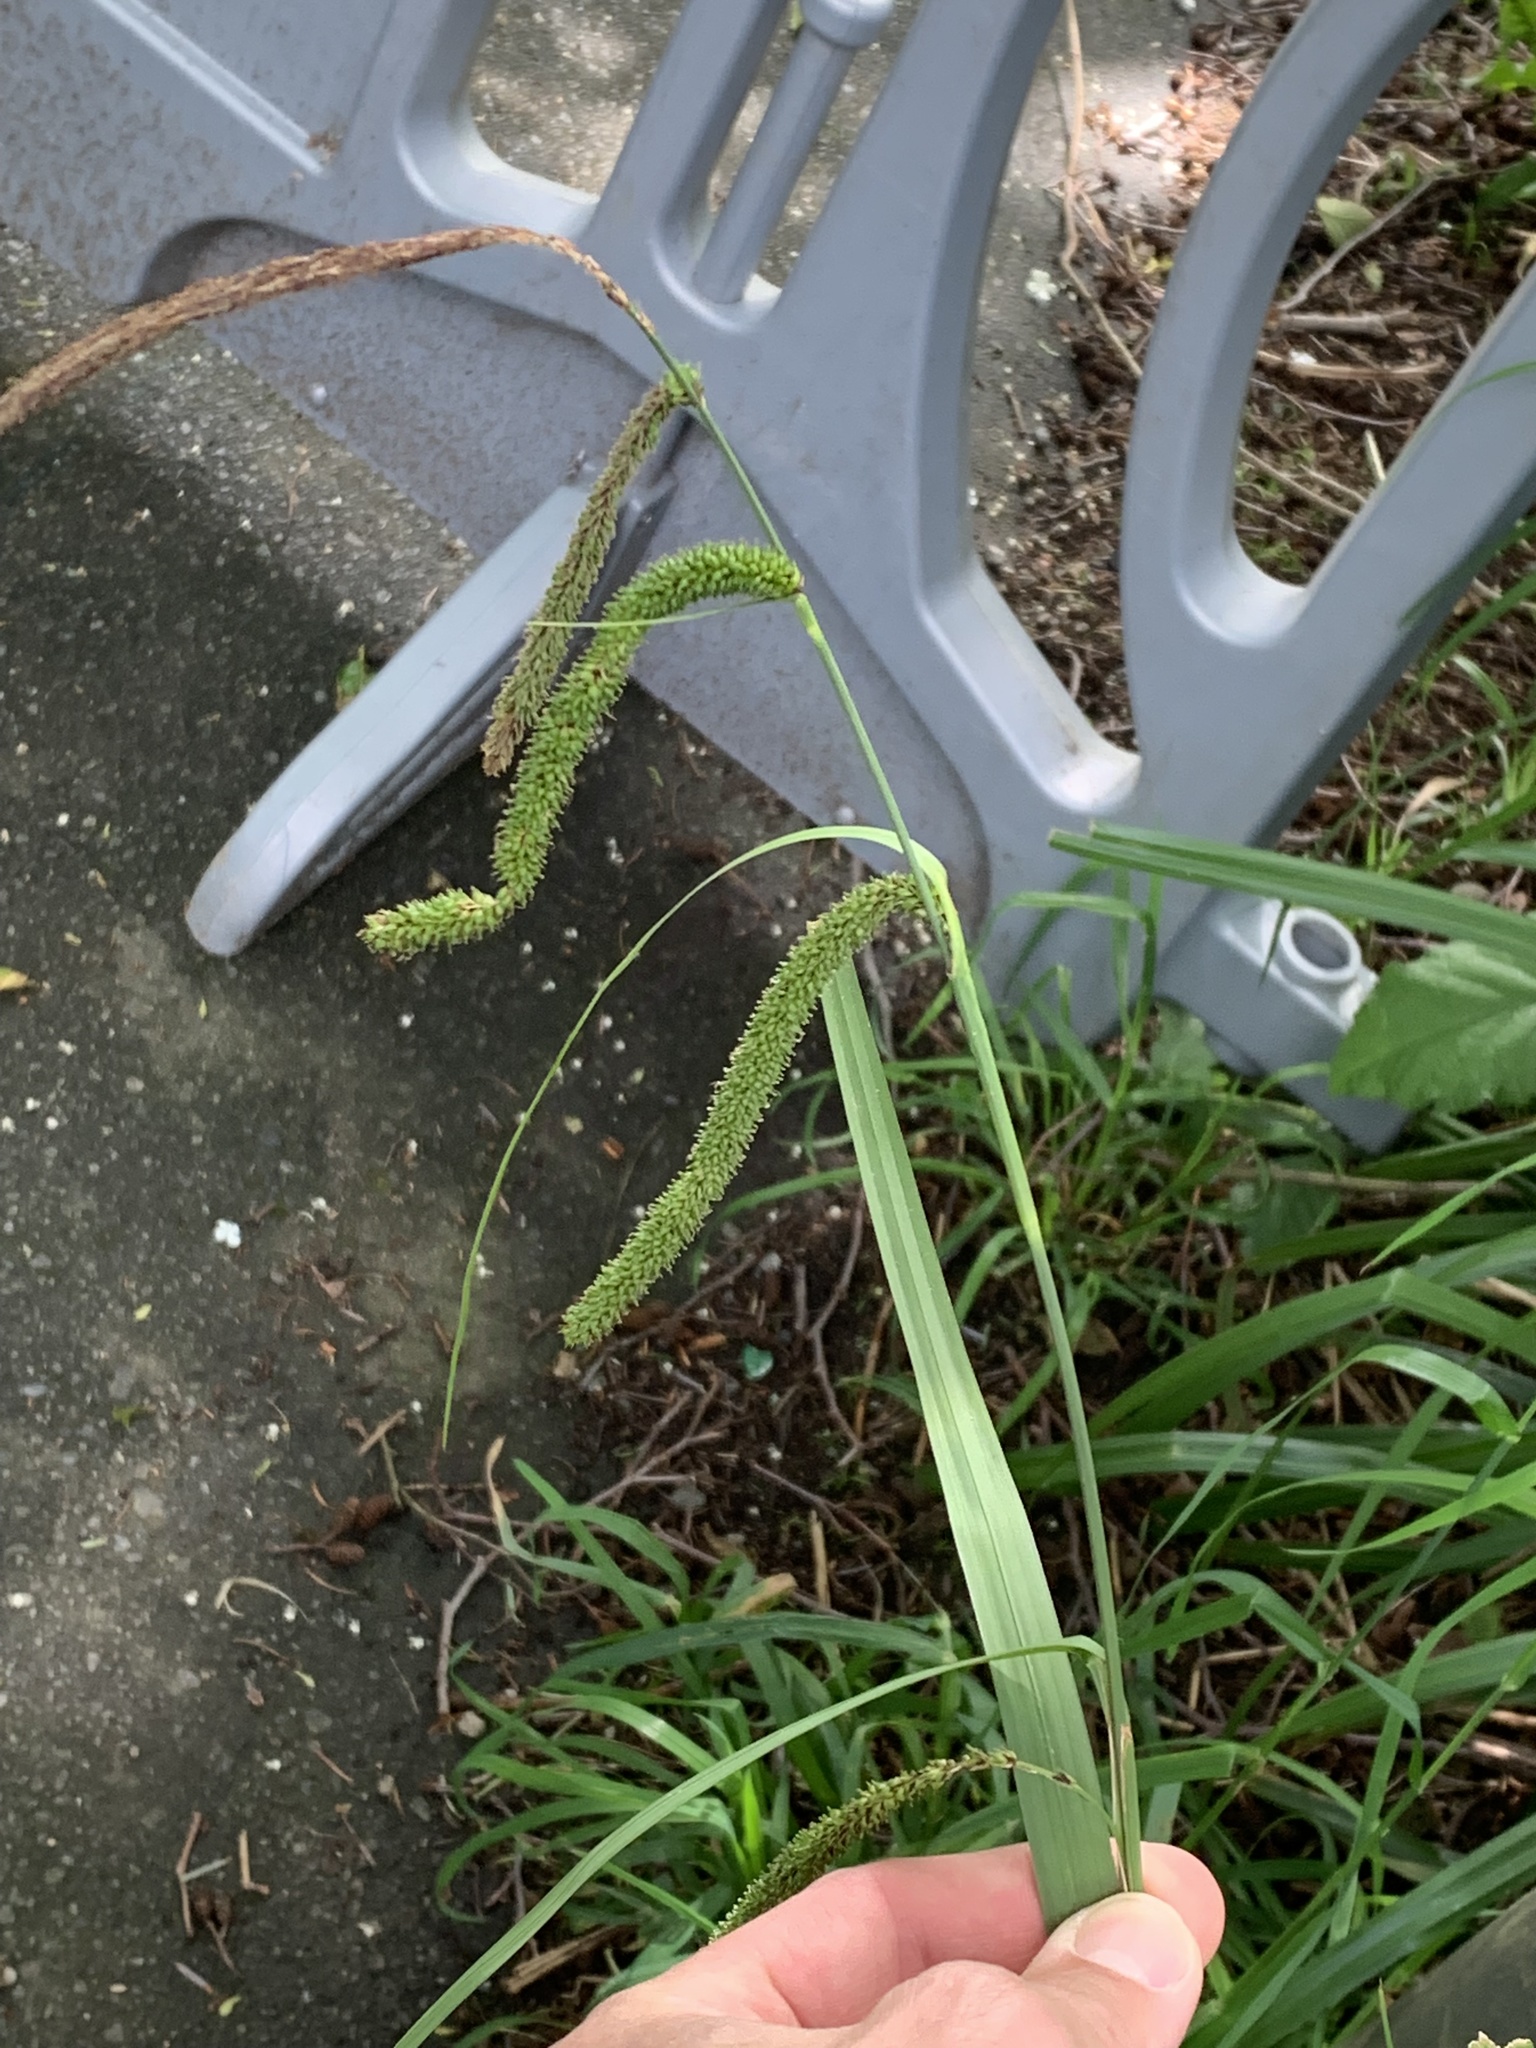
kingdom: Plantae
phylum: Tracheophyta
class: Liliopsida
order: Poales
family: Cyperaceae
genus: Carex
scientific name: Carex pendula
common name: Pendulous sedge
